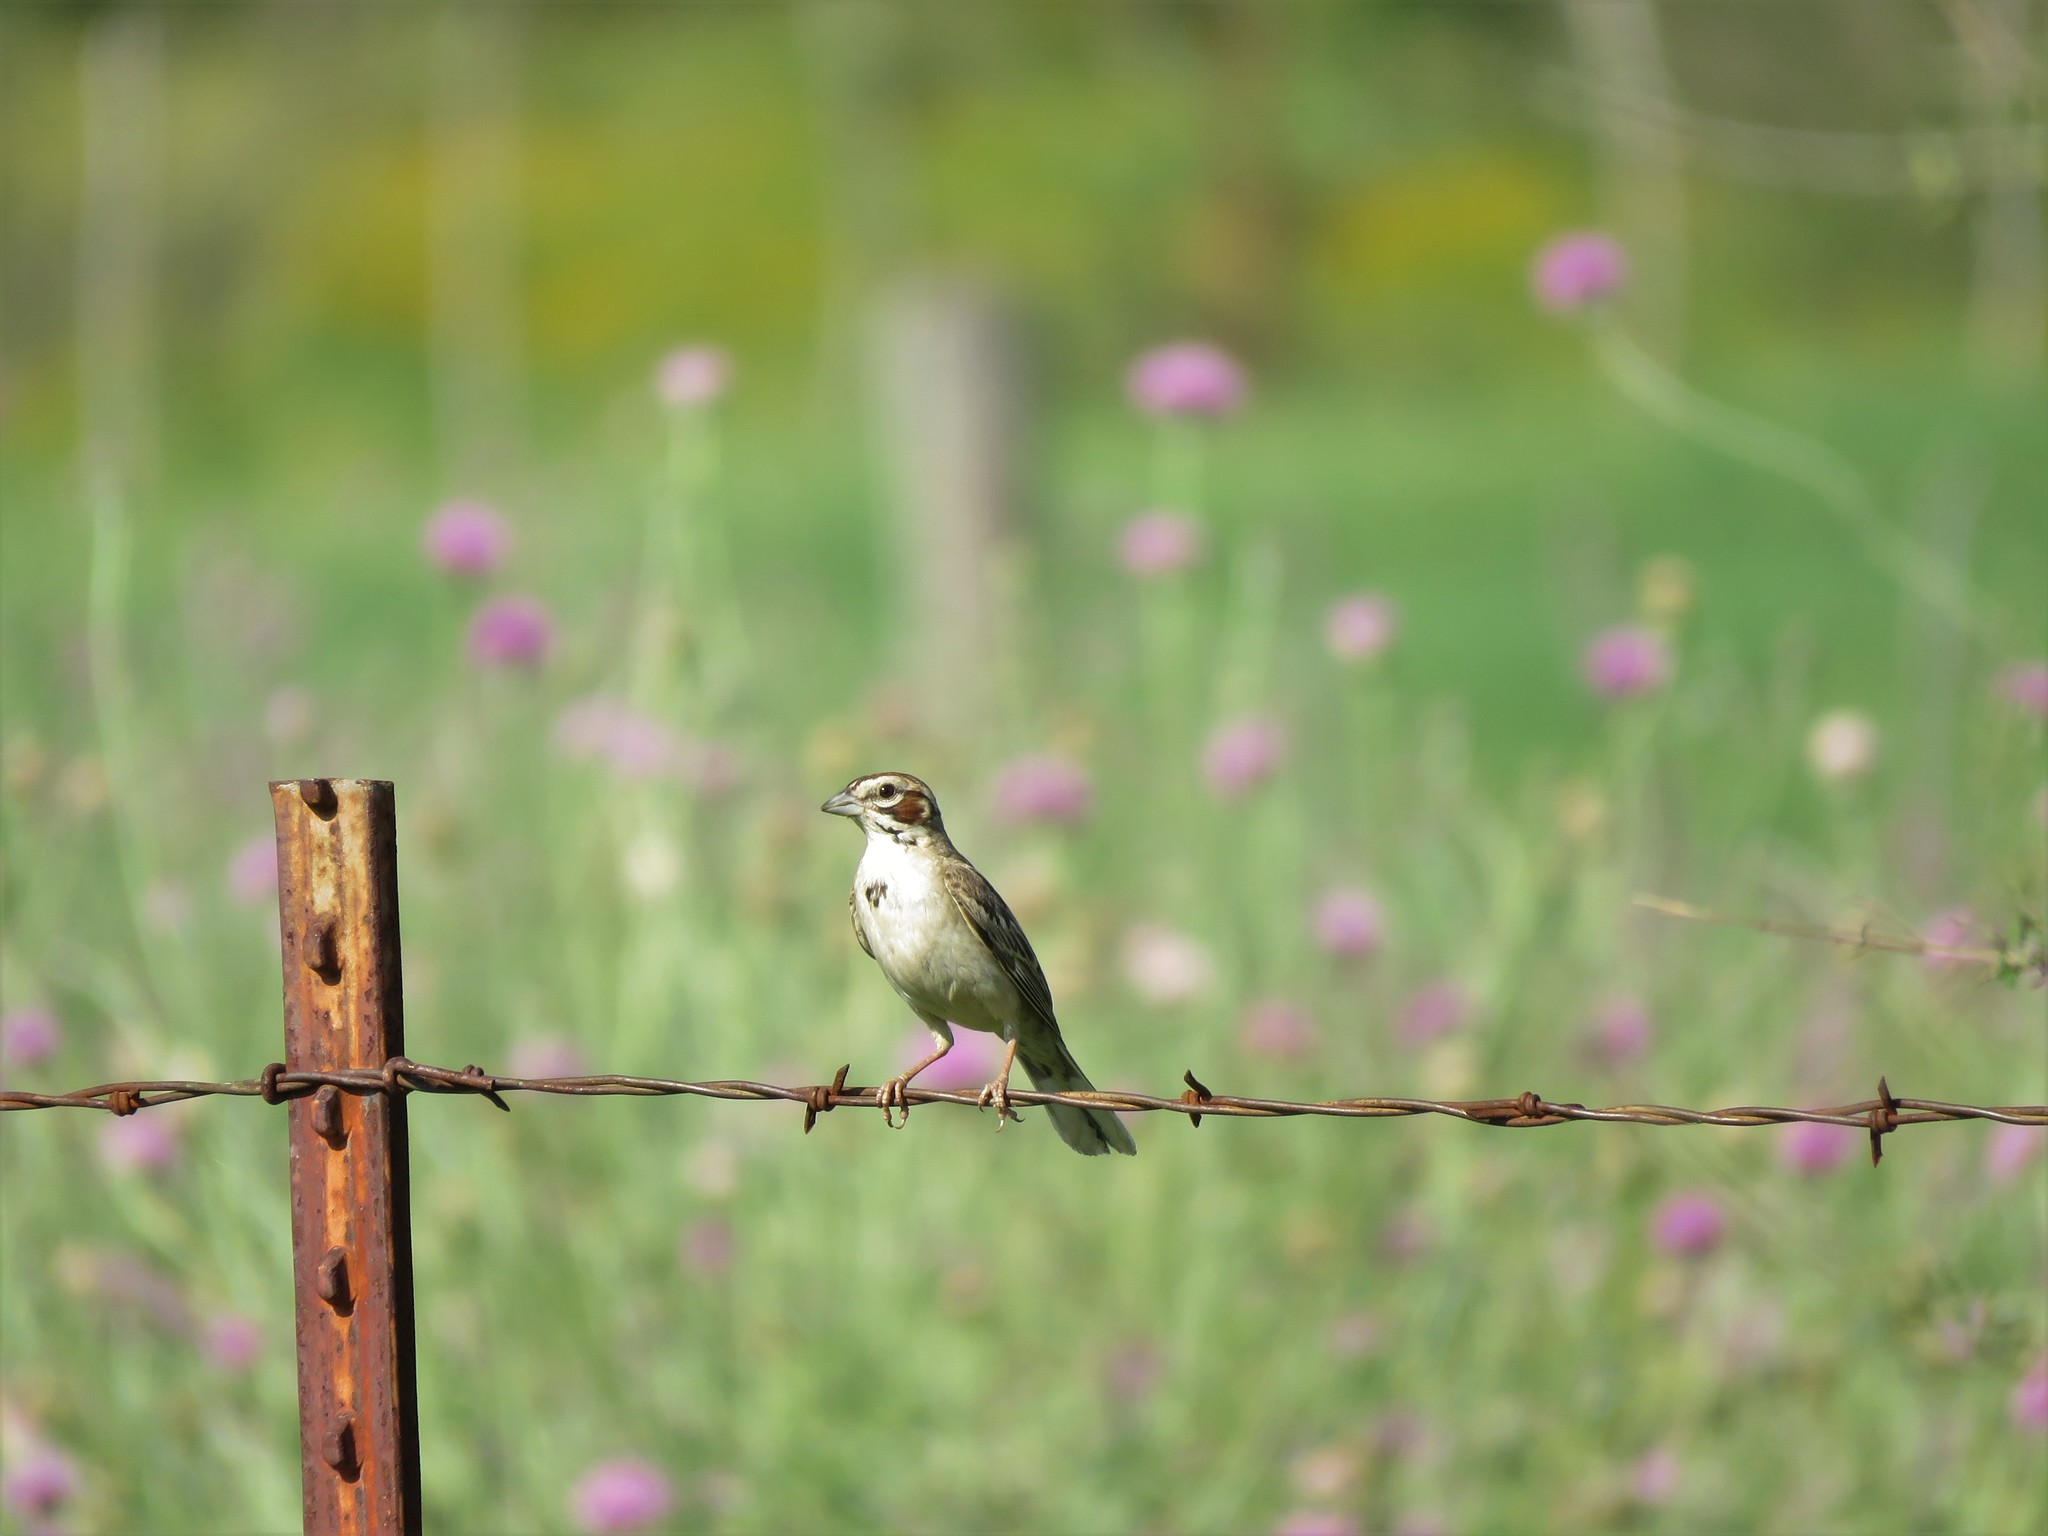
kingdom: Animalia
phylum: Chordata
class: Aves
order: Passeriformes
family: Passerellidae
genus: Chondestes
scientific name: Chondestes grammacus
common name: Lark sparrow
